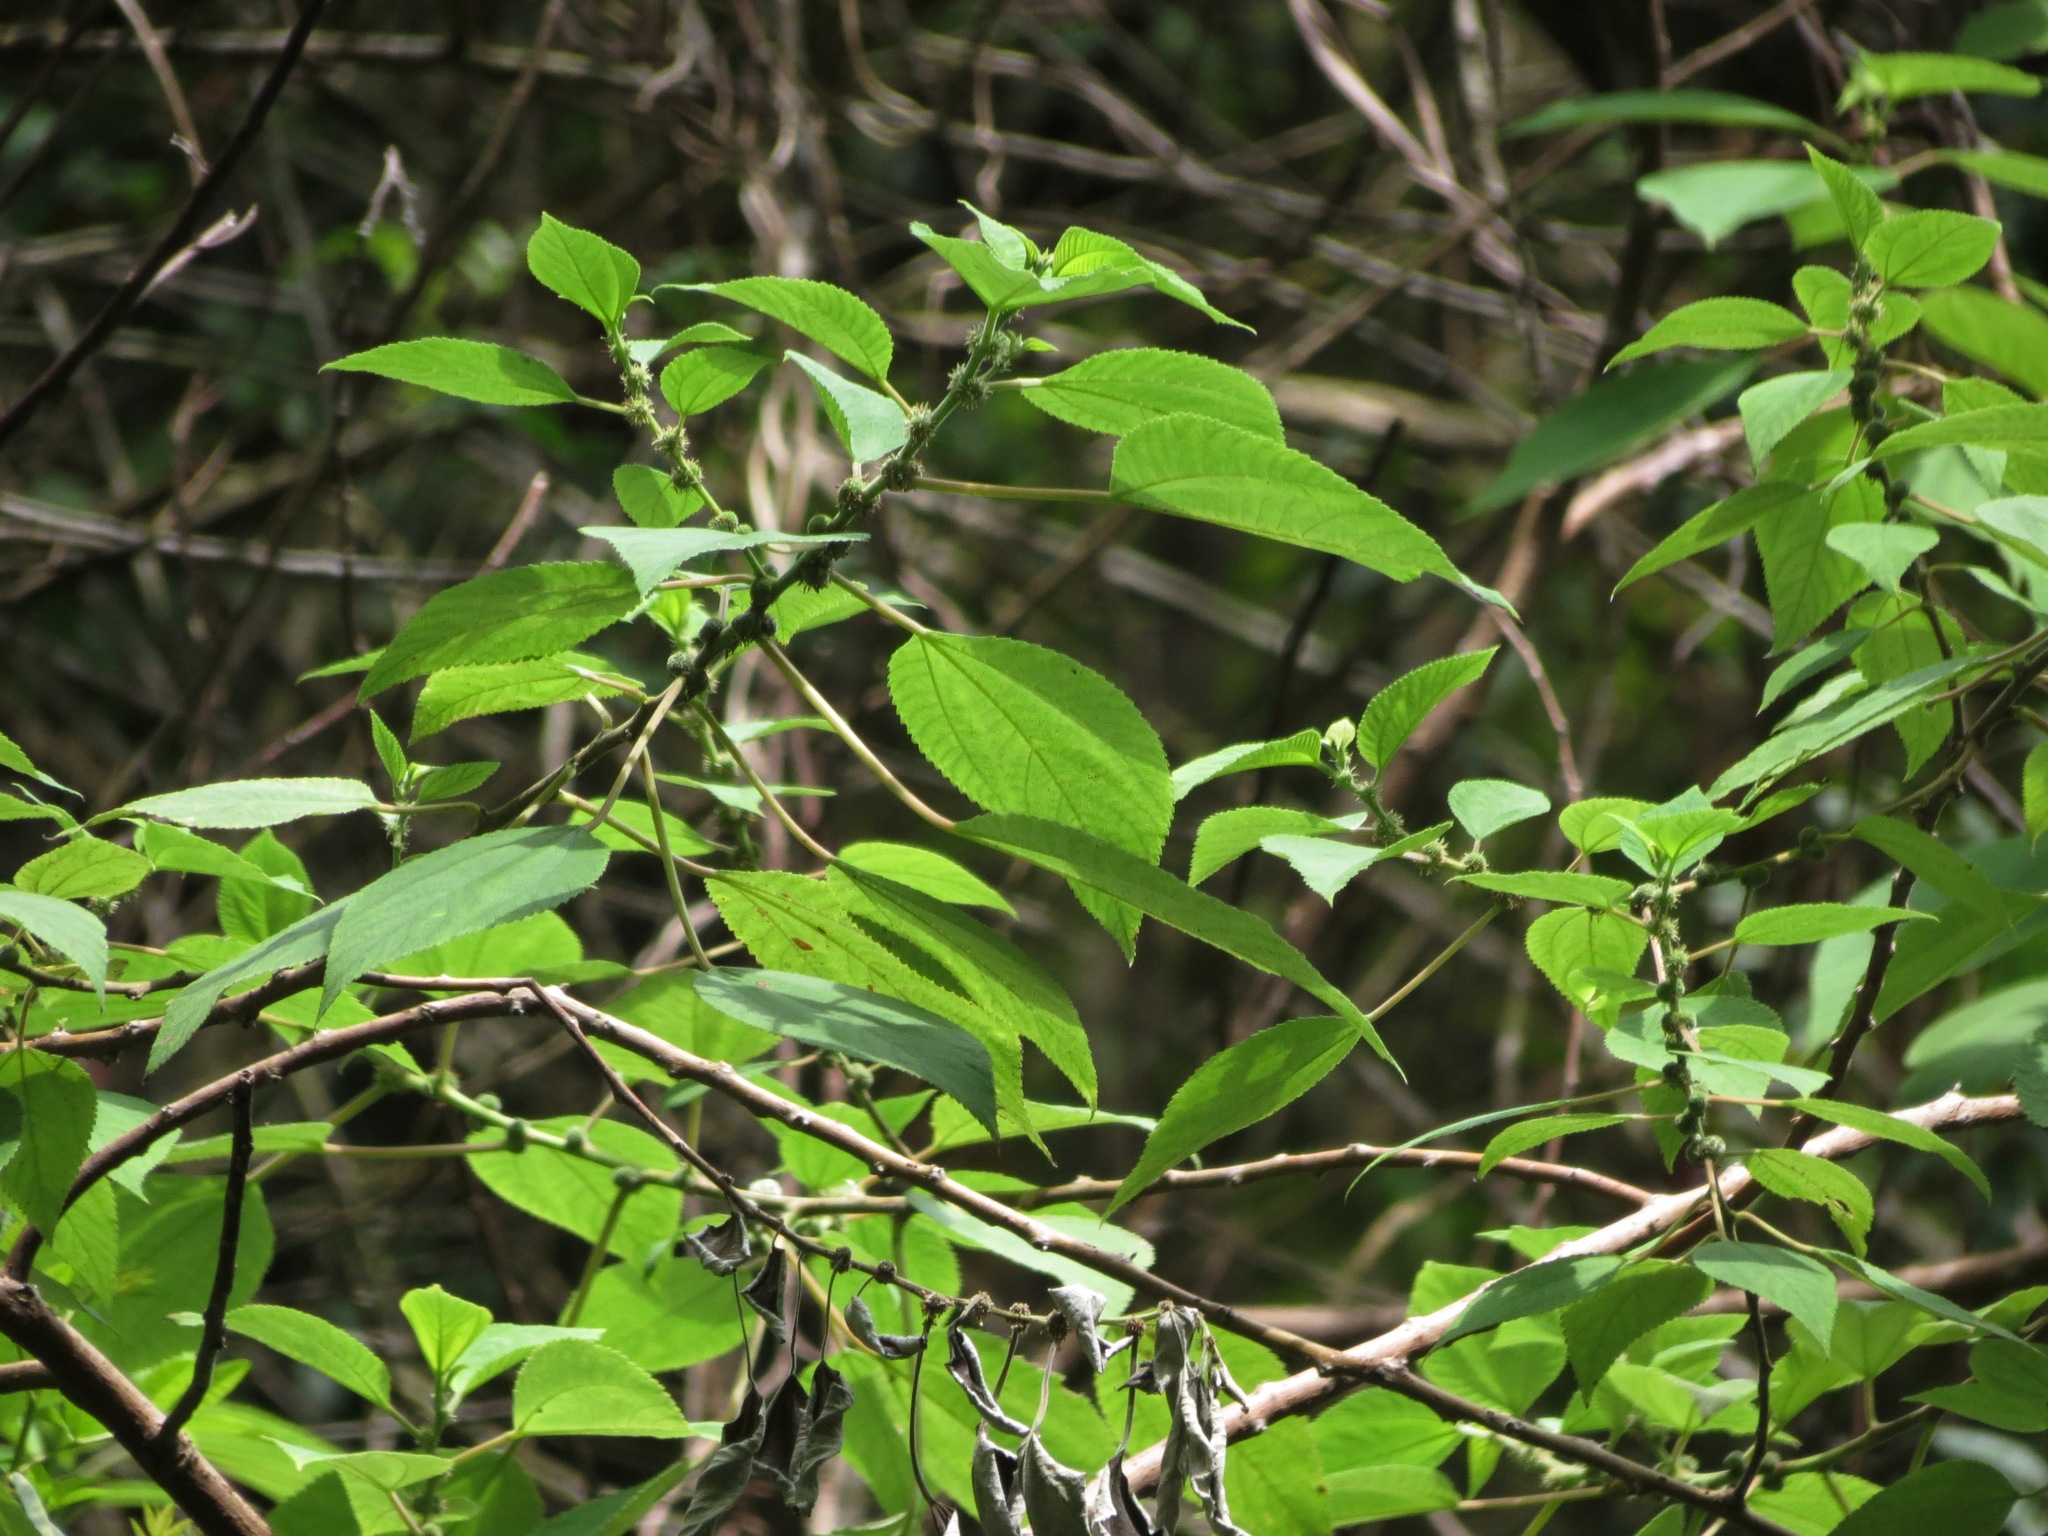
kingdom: Plantae
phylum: Tracheophyta
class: Magnoliopsida
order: Rosales
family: Urticaceae
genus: Pipturus
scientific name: Pipturus albidus
